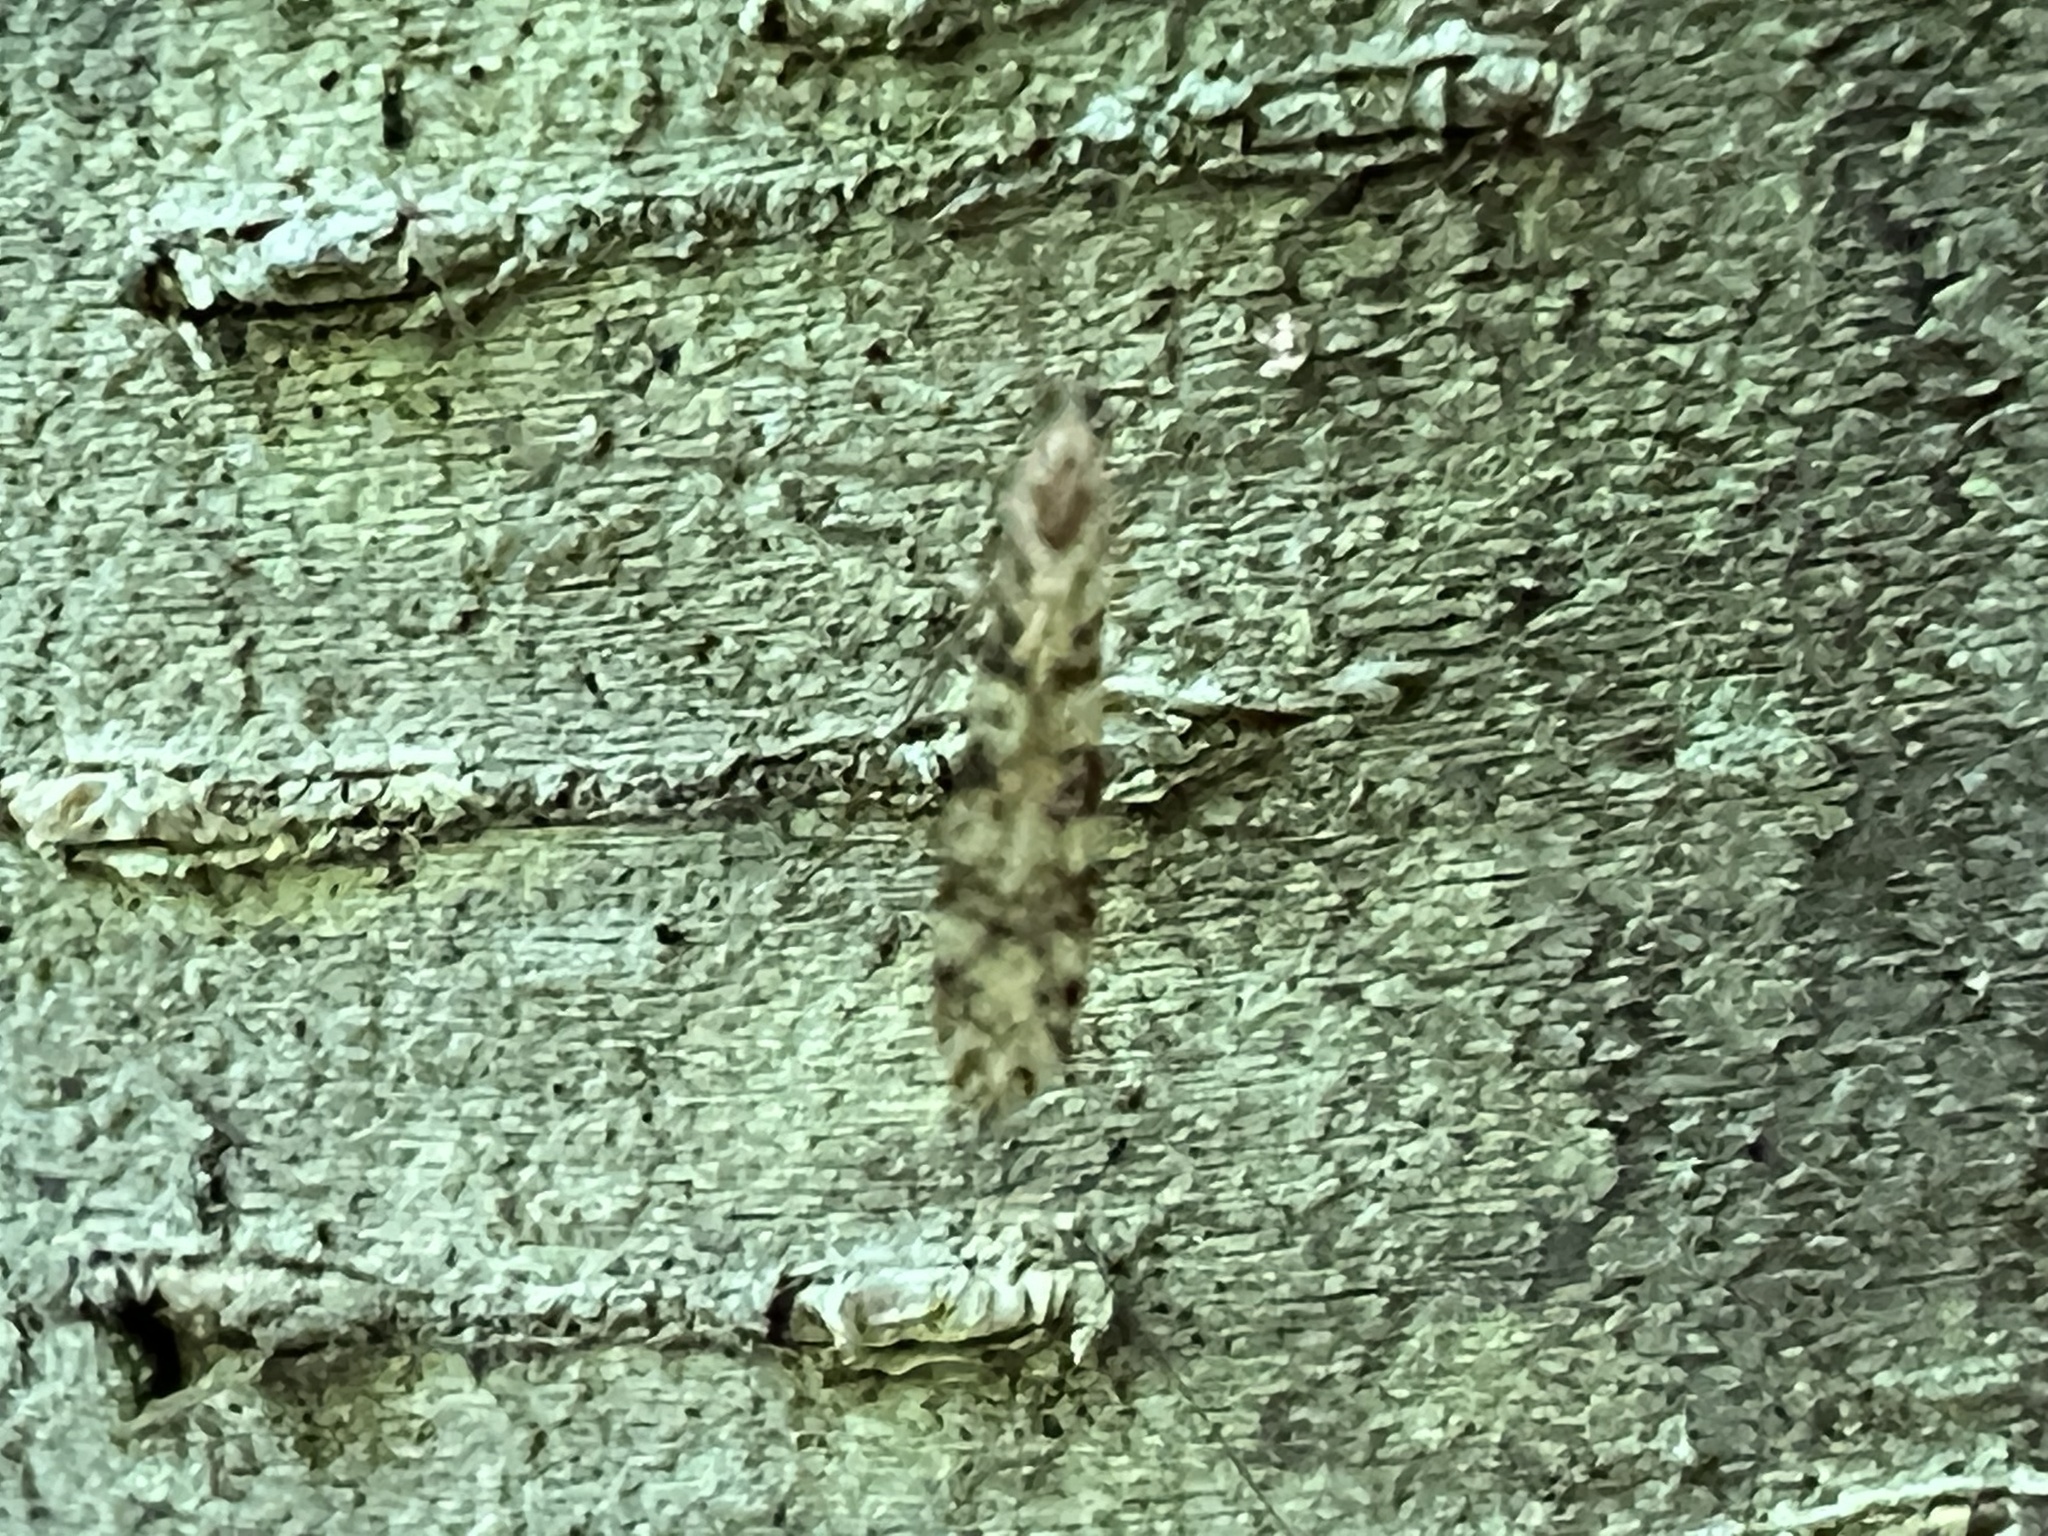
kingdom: Animalia
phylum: Arthropoda
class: Insecta
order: Diptera
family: Limoniidae
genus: Limonia
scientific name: Limonia annulata
